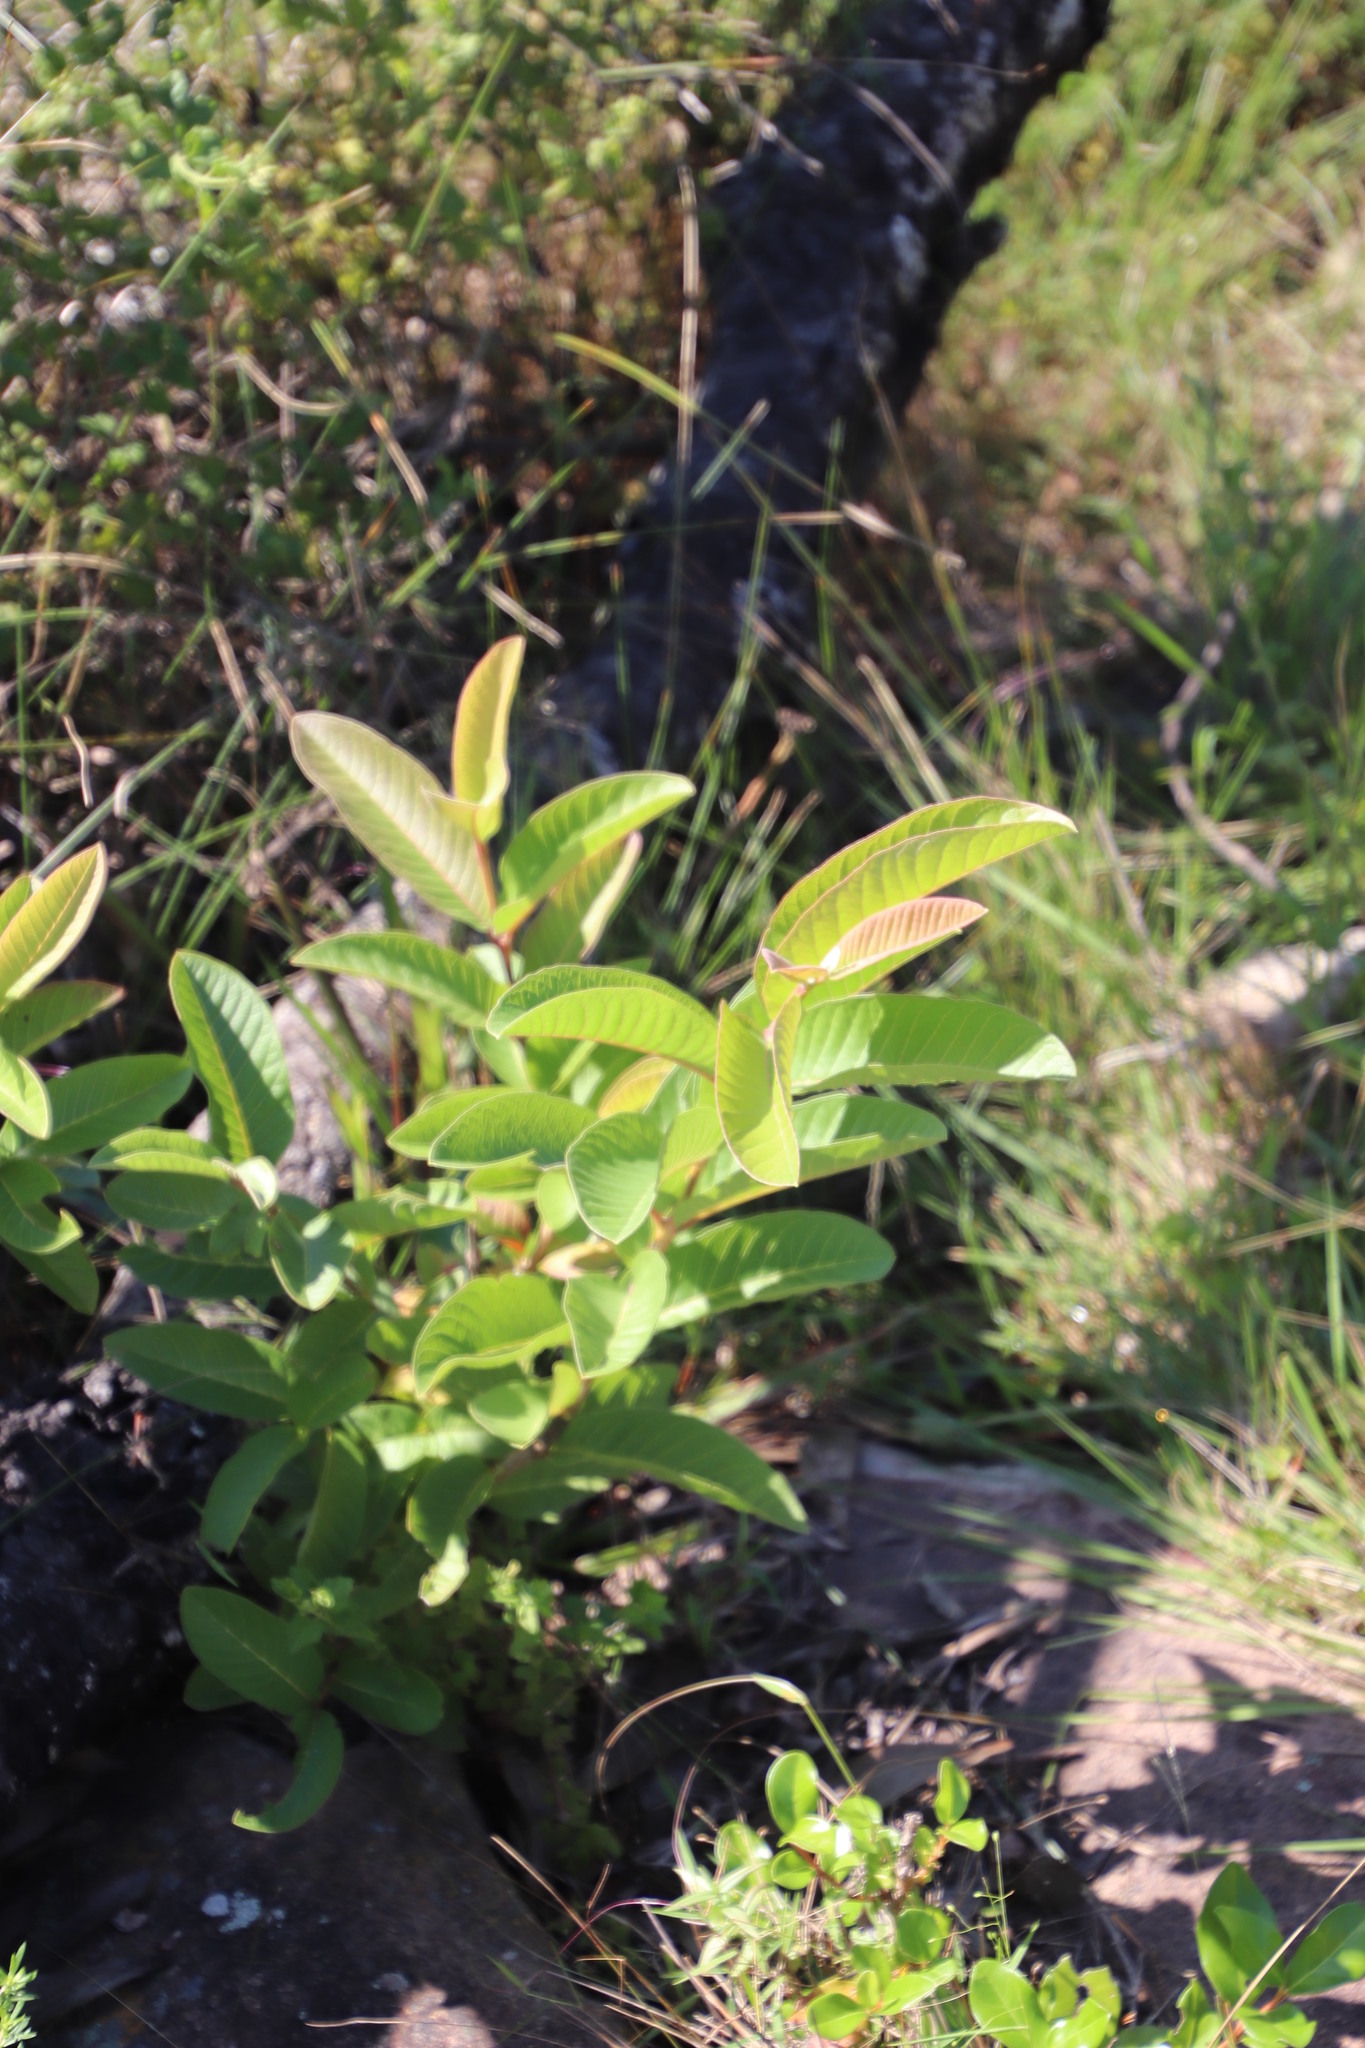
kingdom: Plantae
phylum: Tracheophyta
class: Magnoliopsida
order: Myrtales
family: Myrtaceae
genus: Psidium
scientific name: Psidium guajava
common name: Guava
